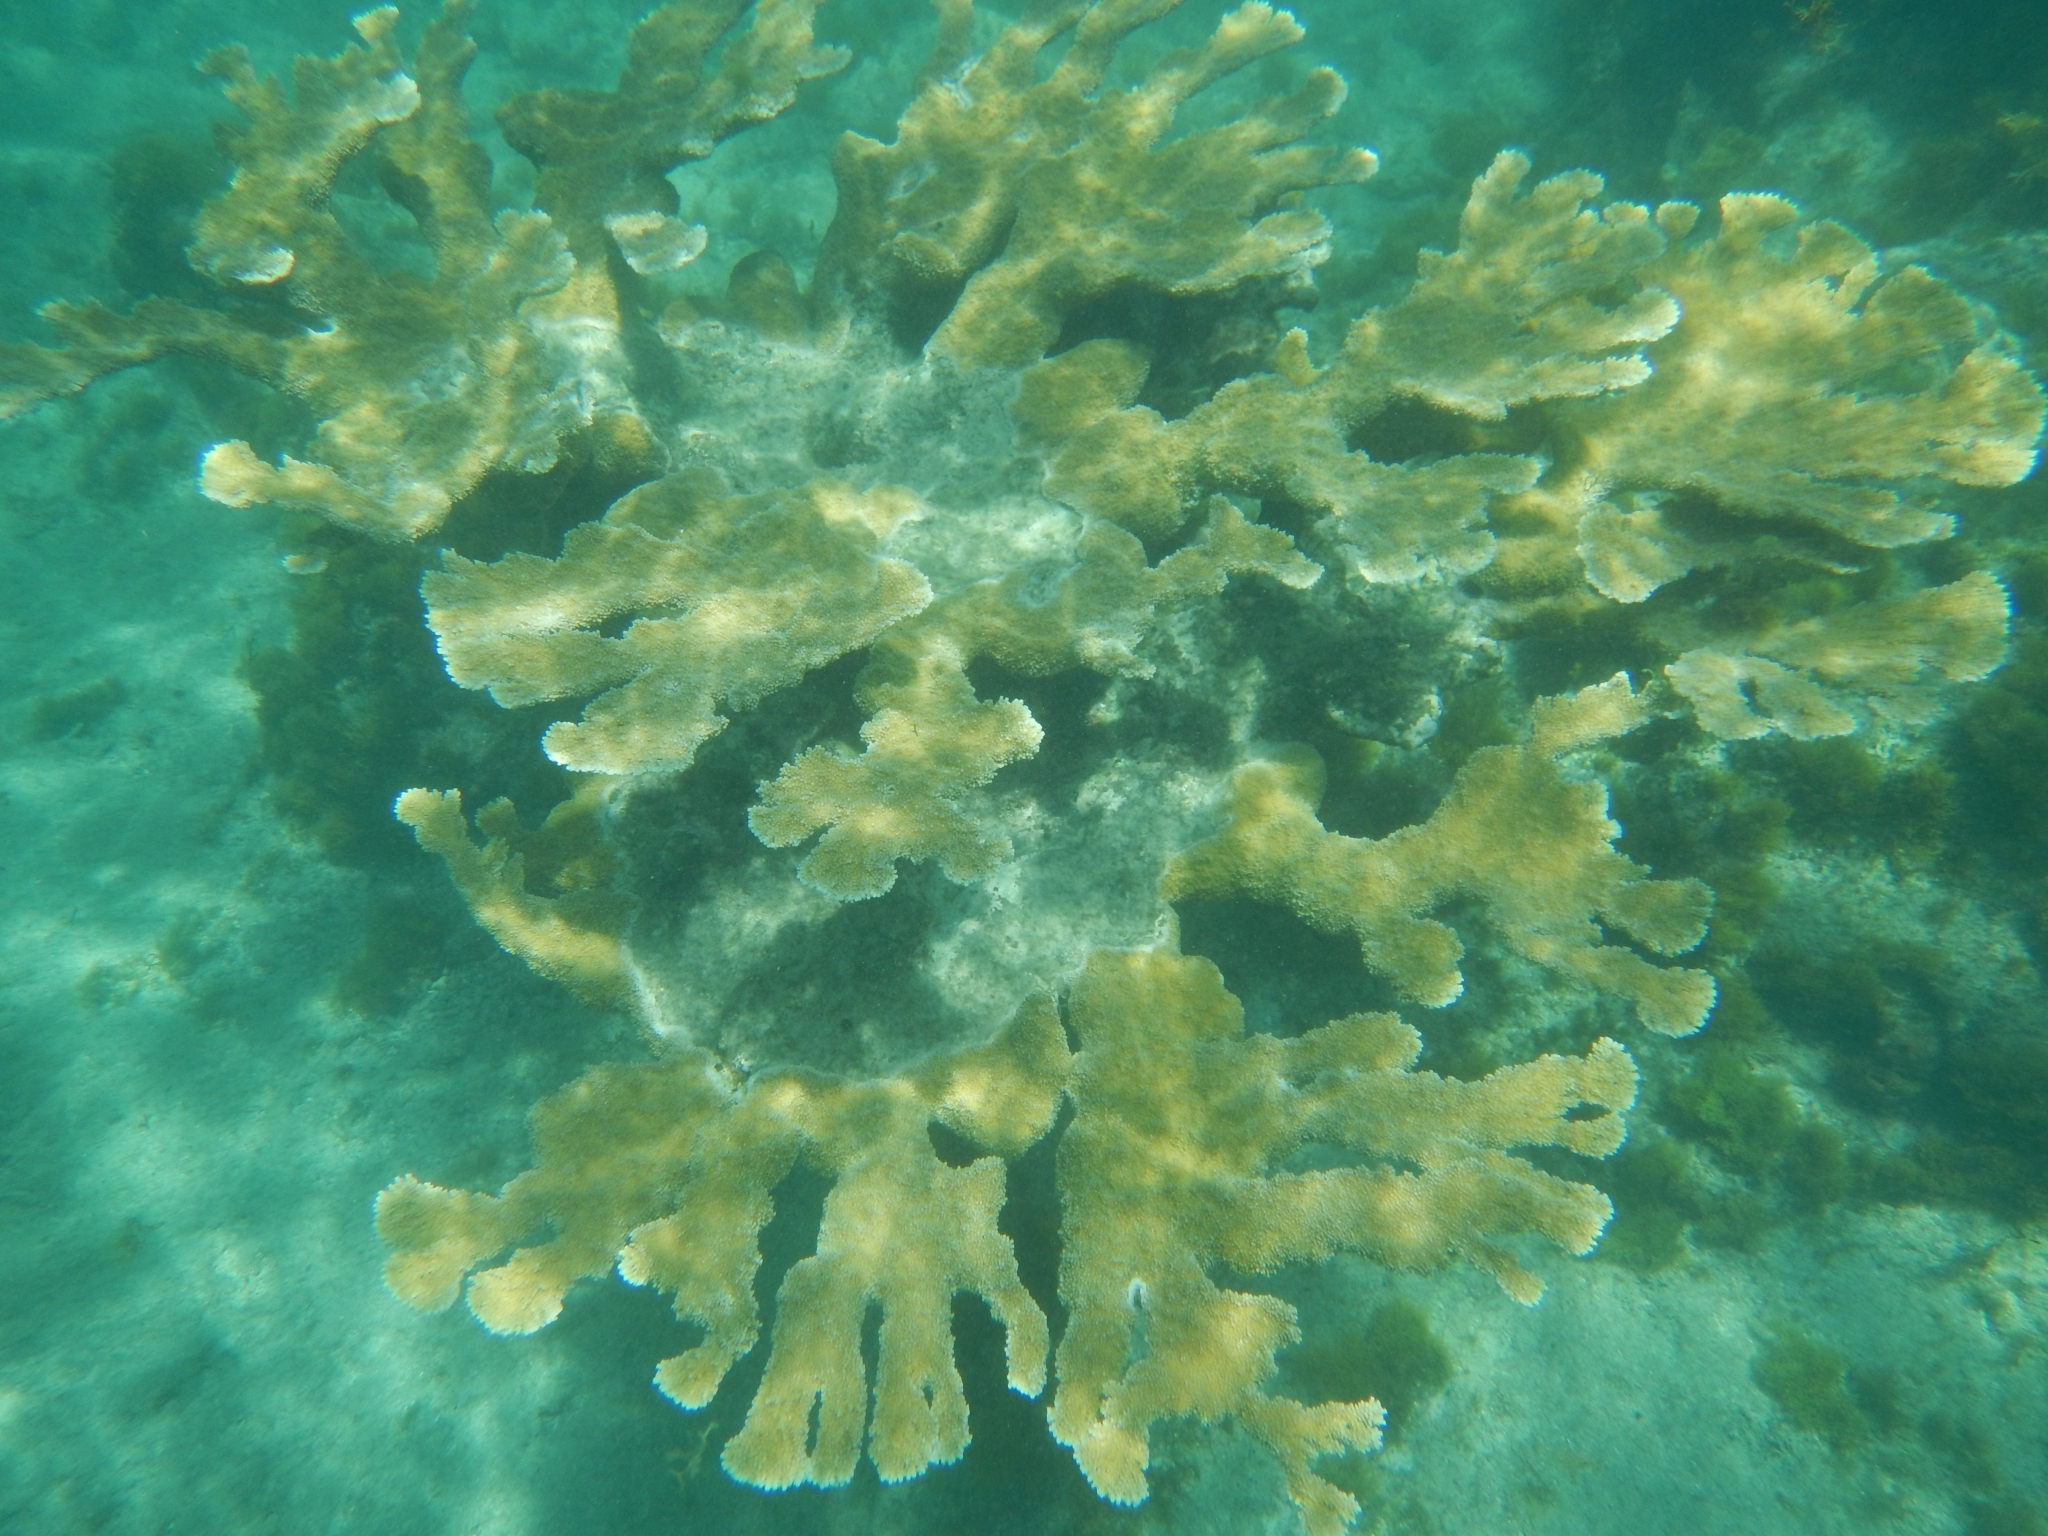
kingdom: Animalia
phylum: Cnidaria
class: Anthozoa
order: Scleractinia
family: Acroporidae
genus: Acropora
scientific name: Acropora palmata
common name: Elkhorn coral
